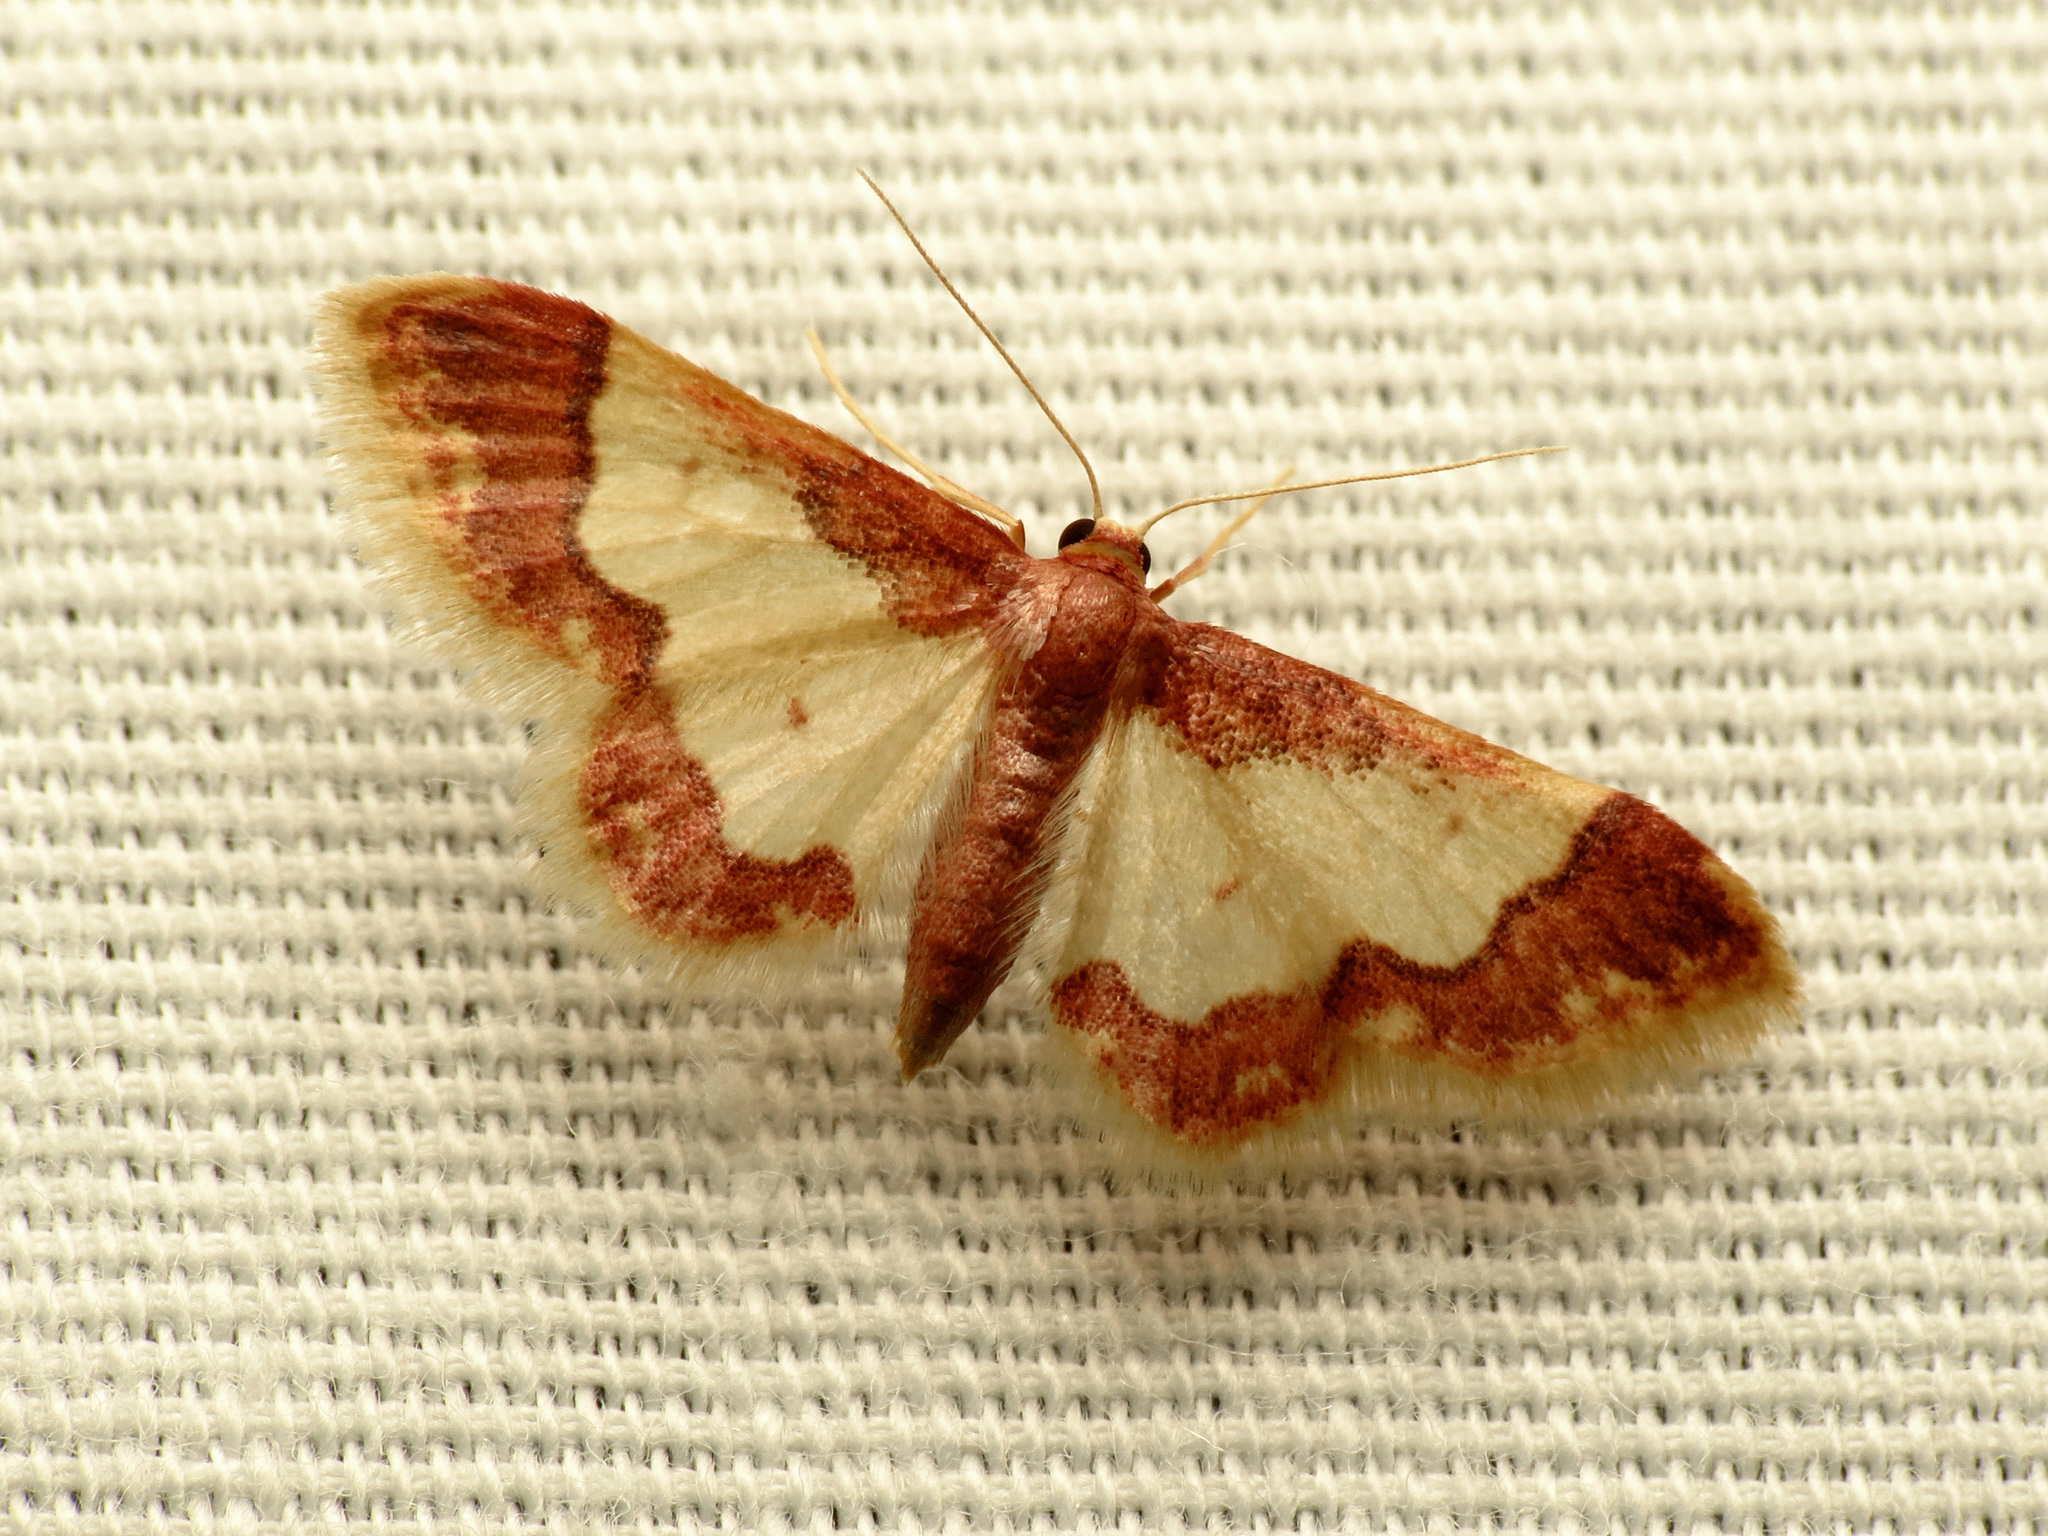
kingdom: Animalia
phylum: Arthropoda
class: Insecta
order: Lepidoptera
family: Geometridae
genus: Idaea
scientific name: Idaea basinta
